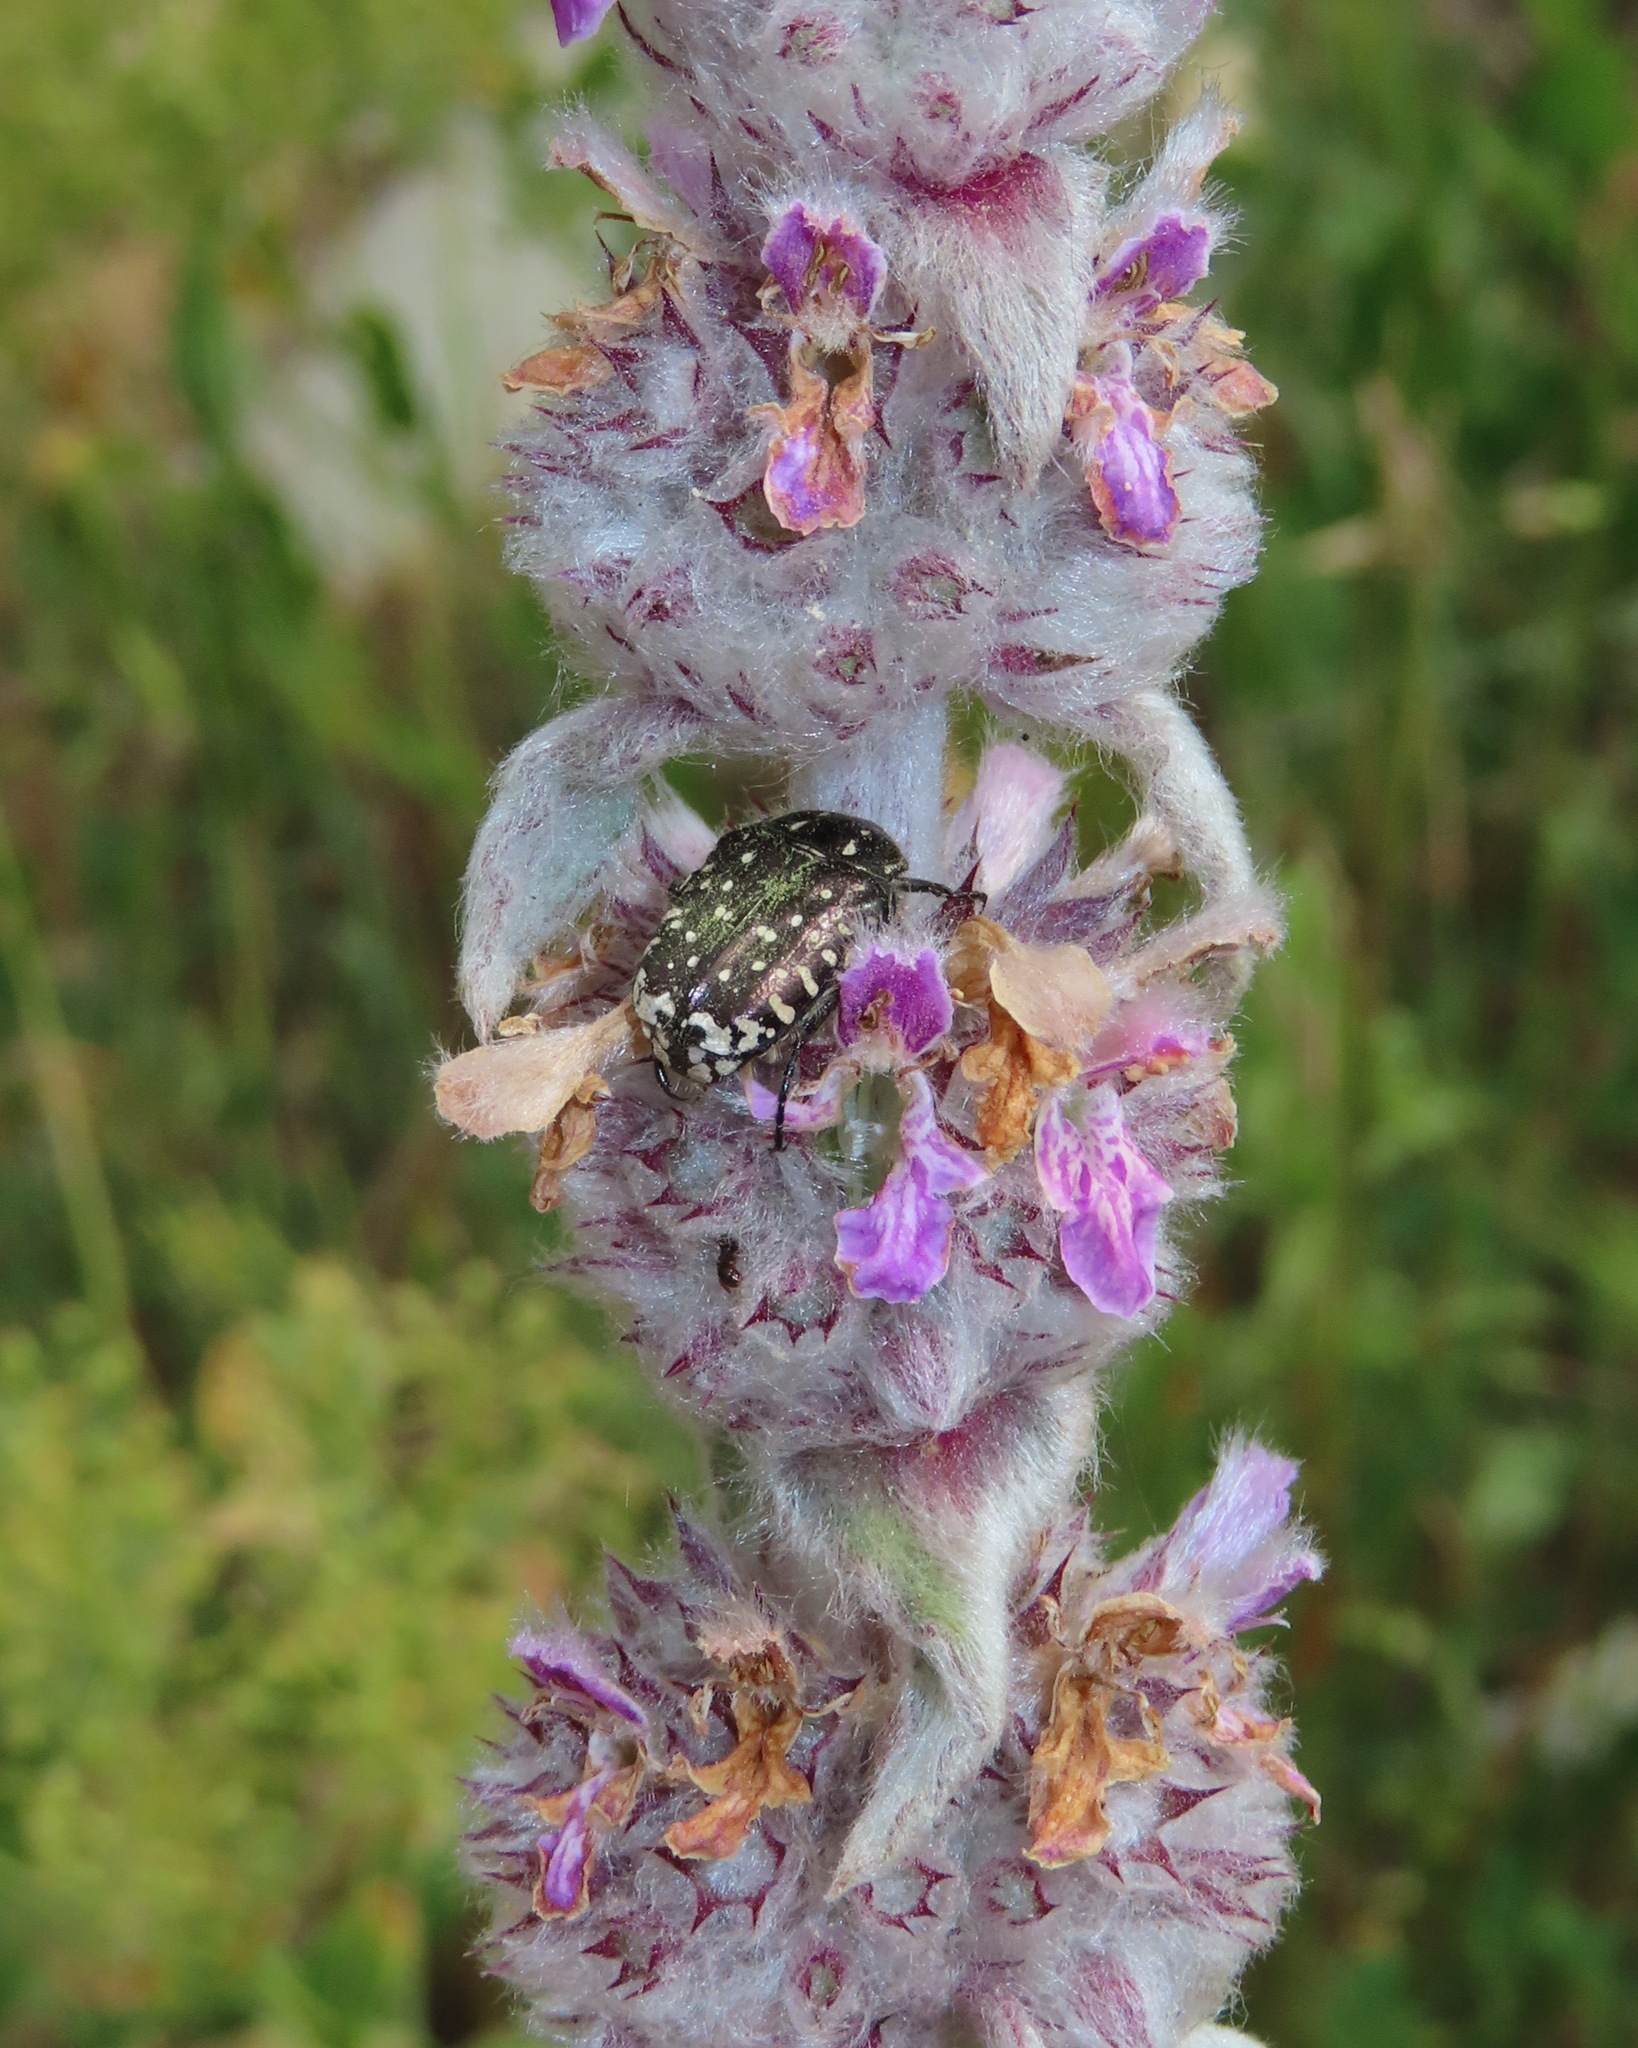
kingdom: Animalia
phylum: Arthropoda
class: Insecta
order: Coleoptera
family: Scarabaeidae
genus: Oxythyrea
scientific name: Oxythyrea funesta
